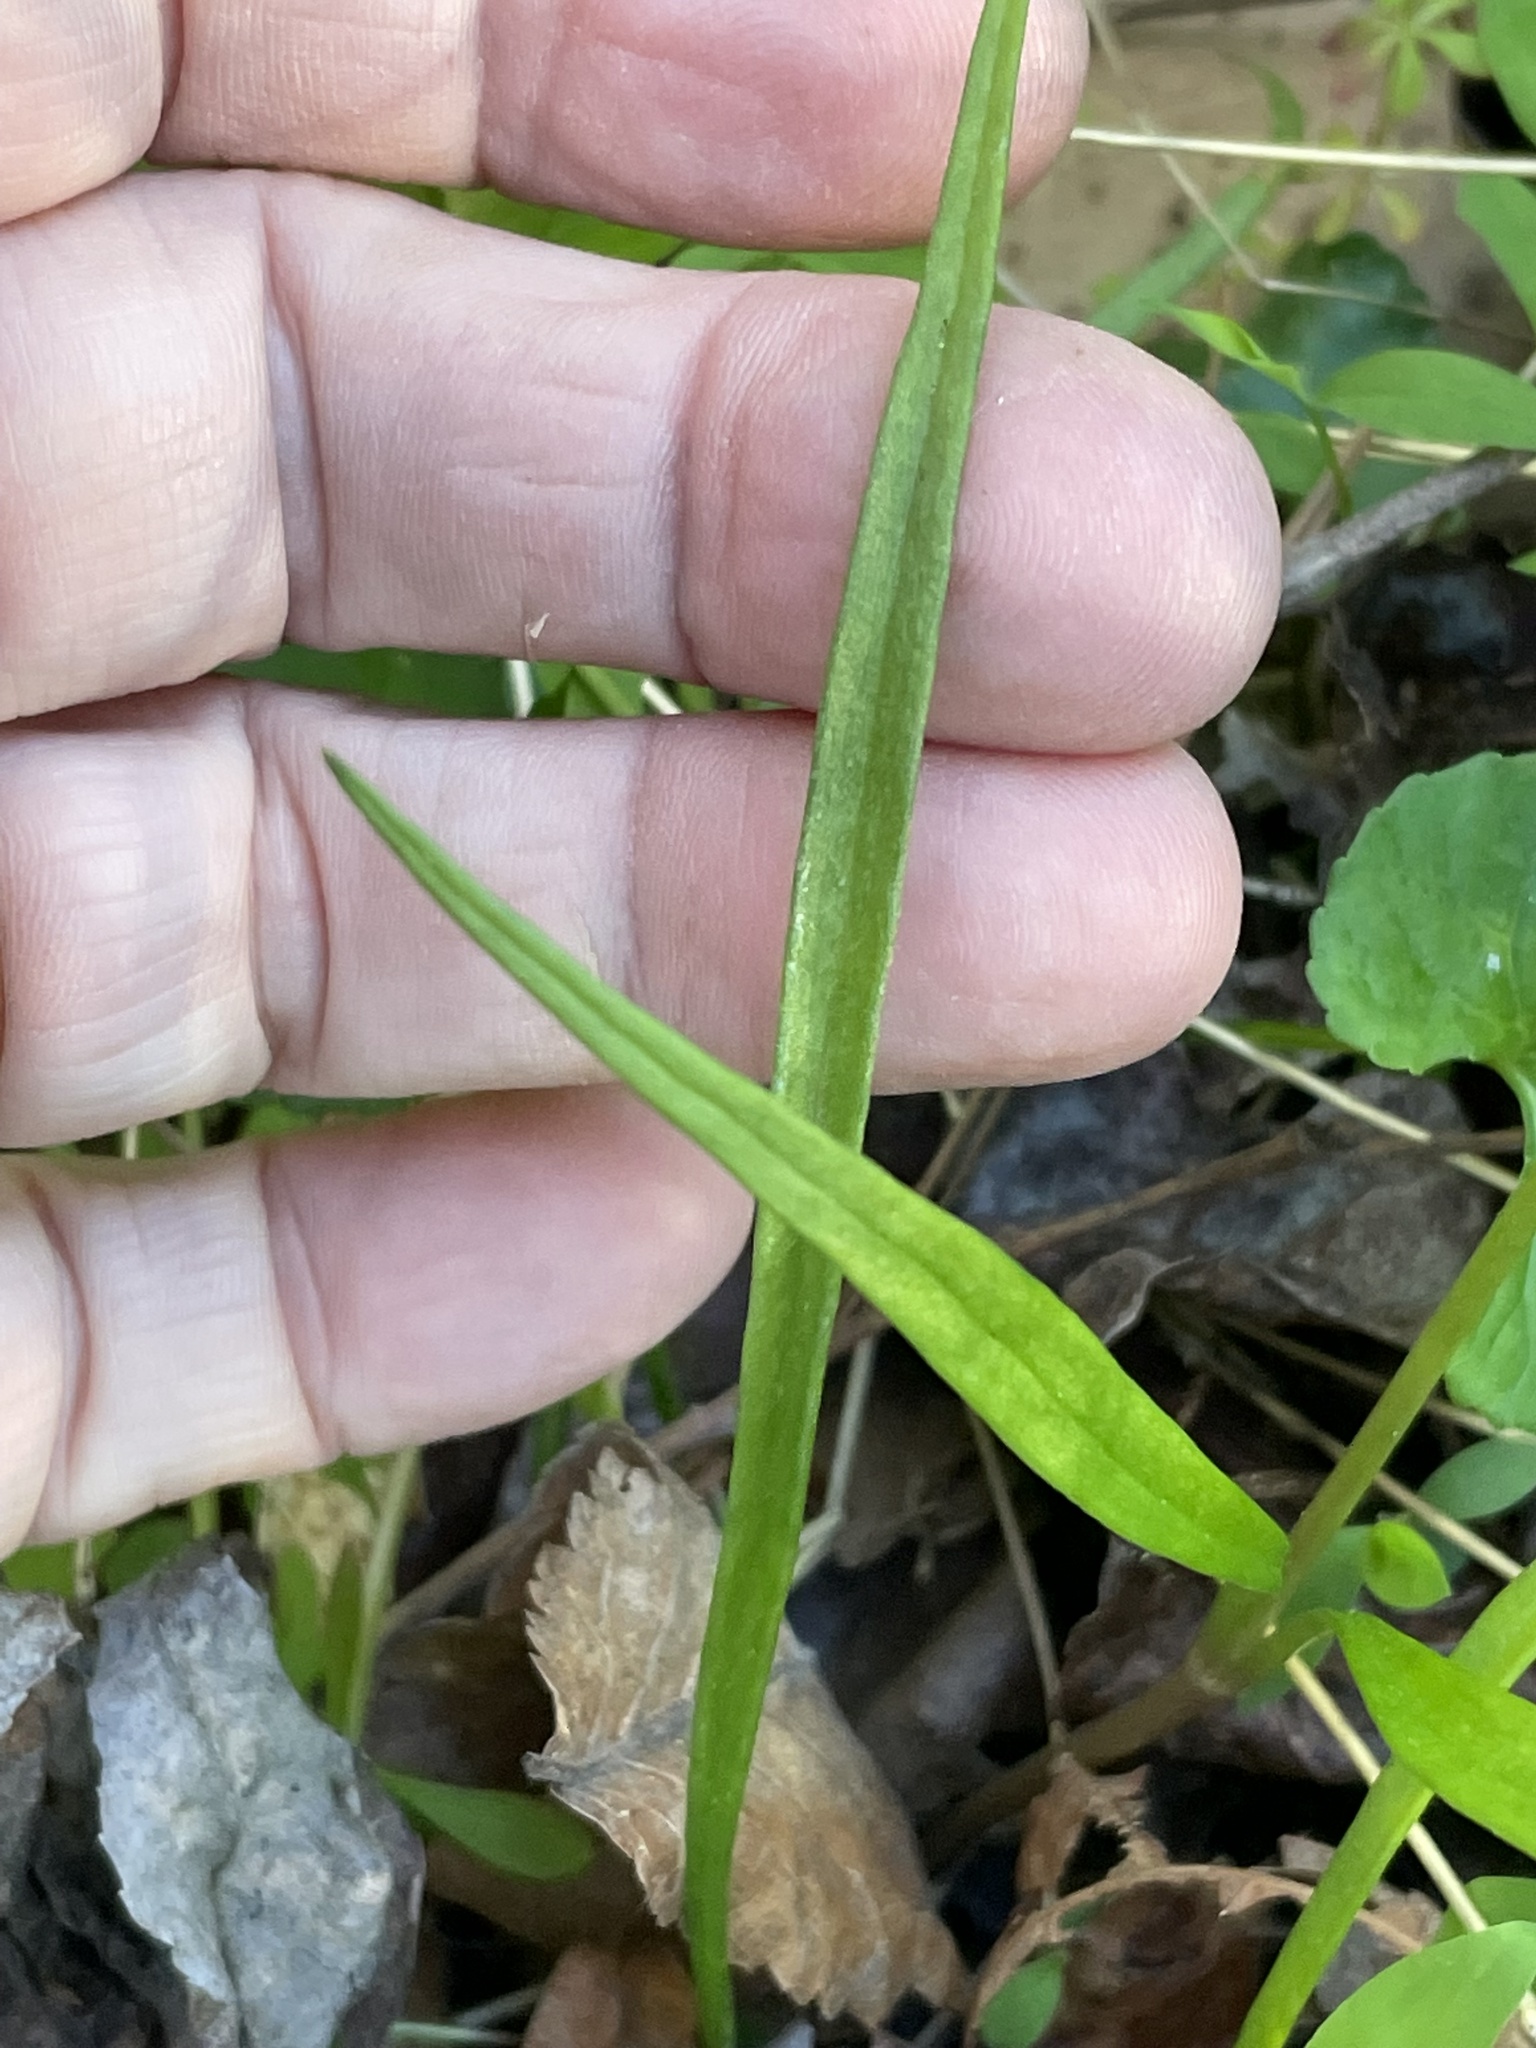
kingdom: Plantae
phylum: Tracheophyta
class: Magnoliopsida
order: Caryophyllales
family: Montiaceae
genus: Claytonia
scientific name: Claytonia virginica
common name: Virginia springbeauty
